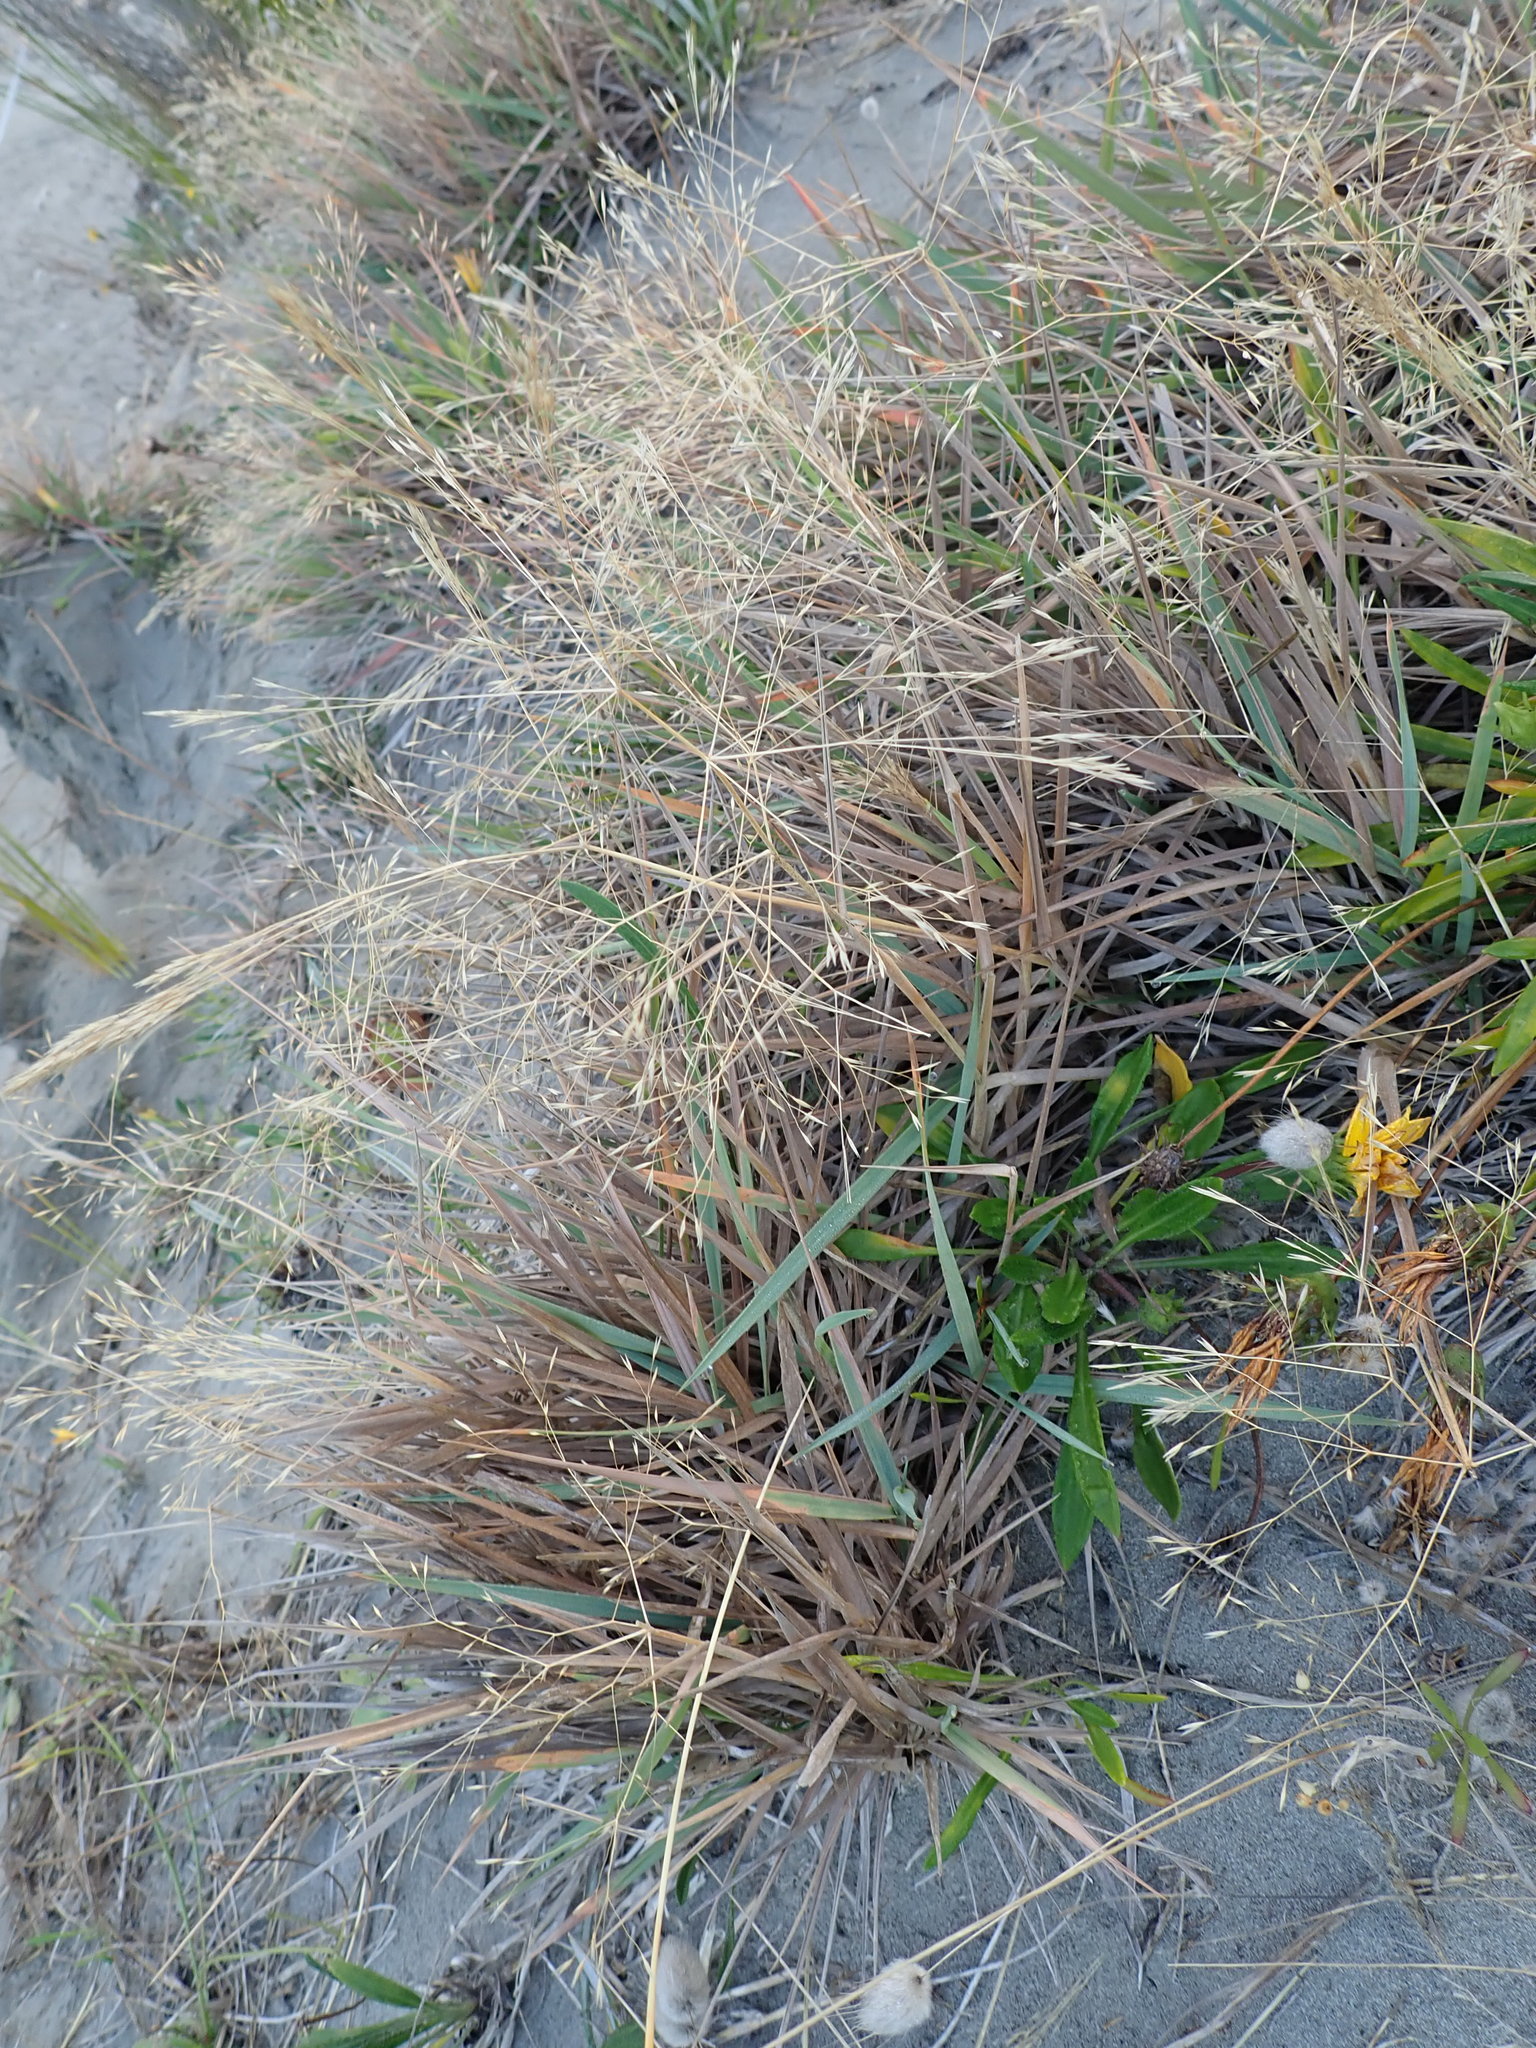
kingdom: Plantae
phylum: Tracheophyta
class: Liliopsida
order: Poales
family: Poaceae
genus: Lachnagrostis
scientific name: Lachnagrostis billardierei
